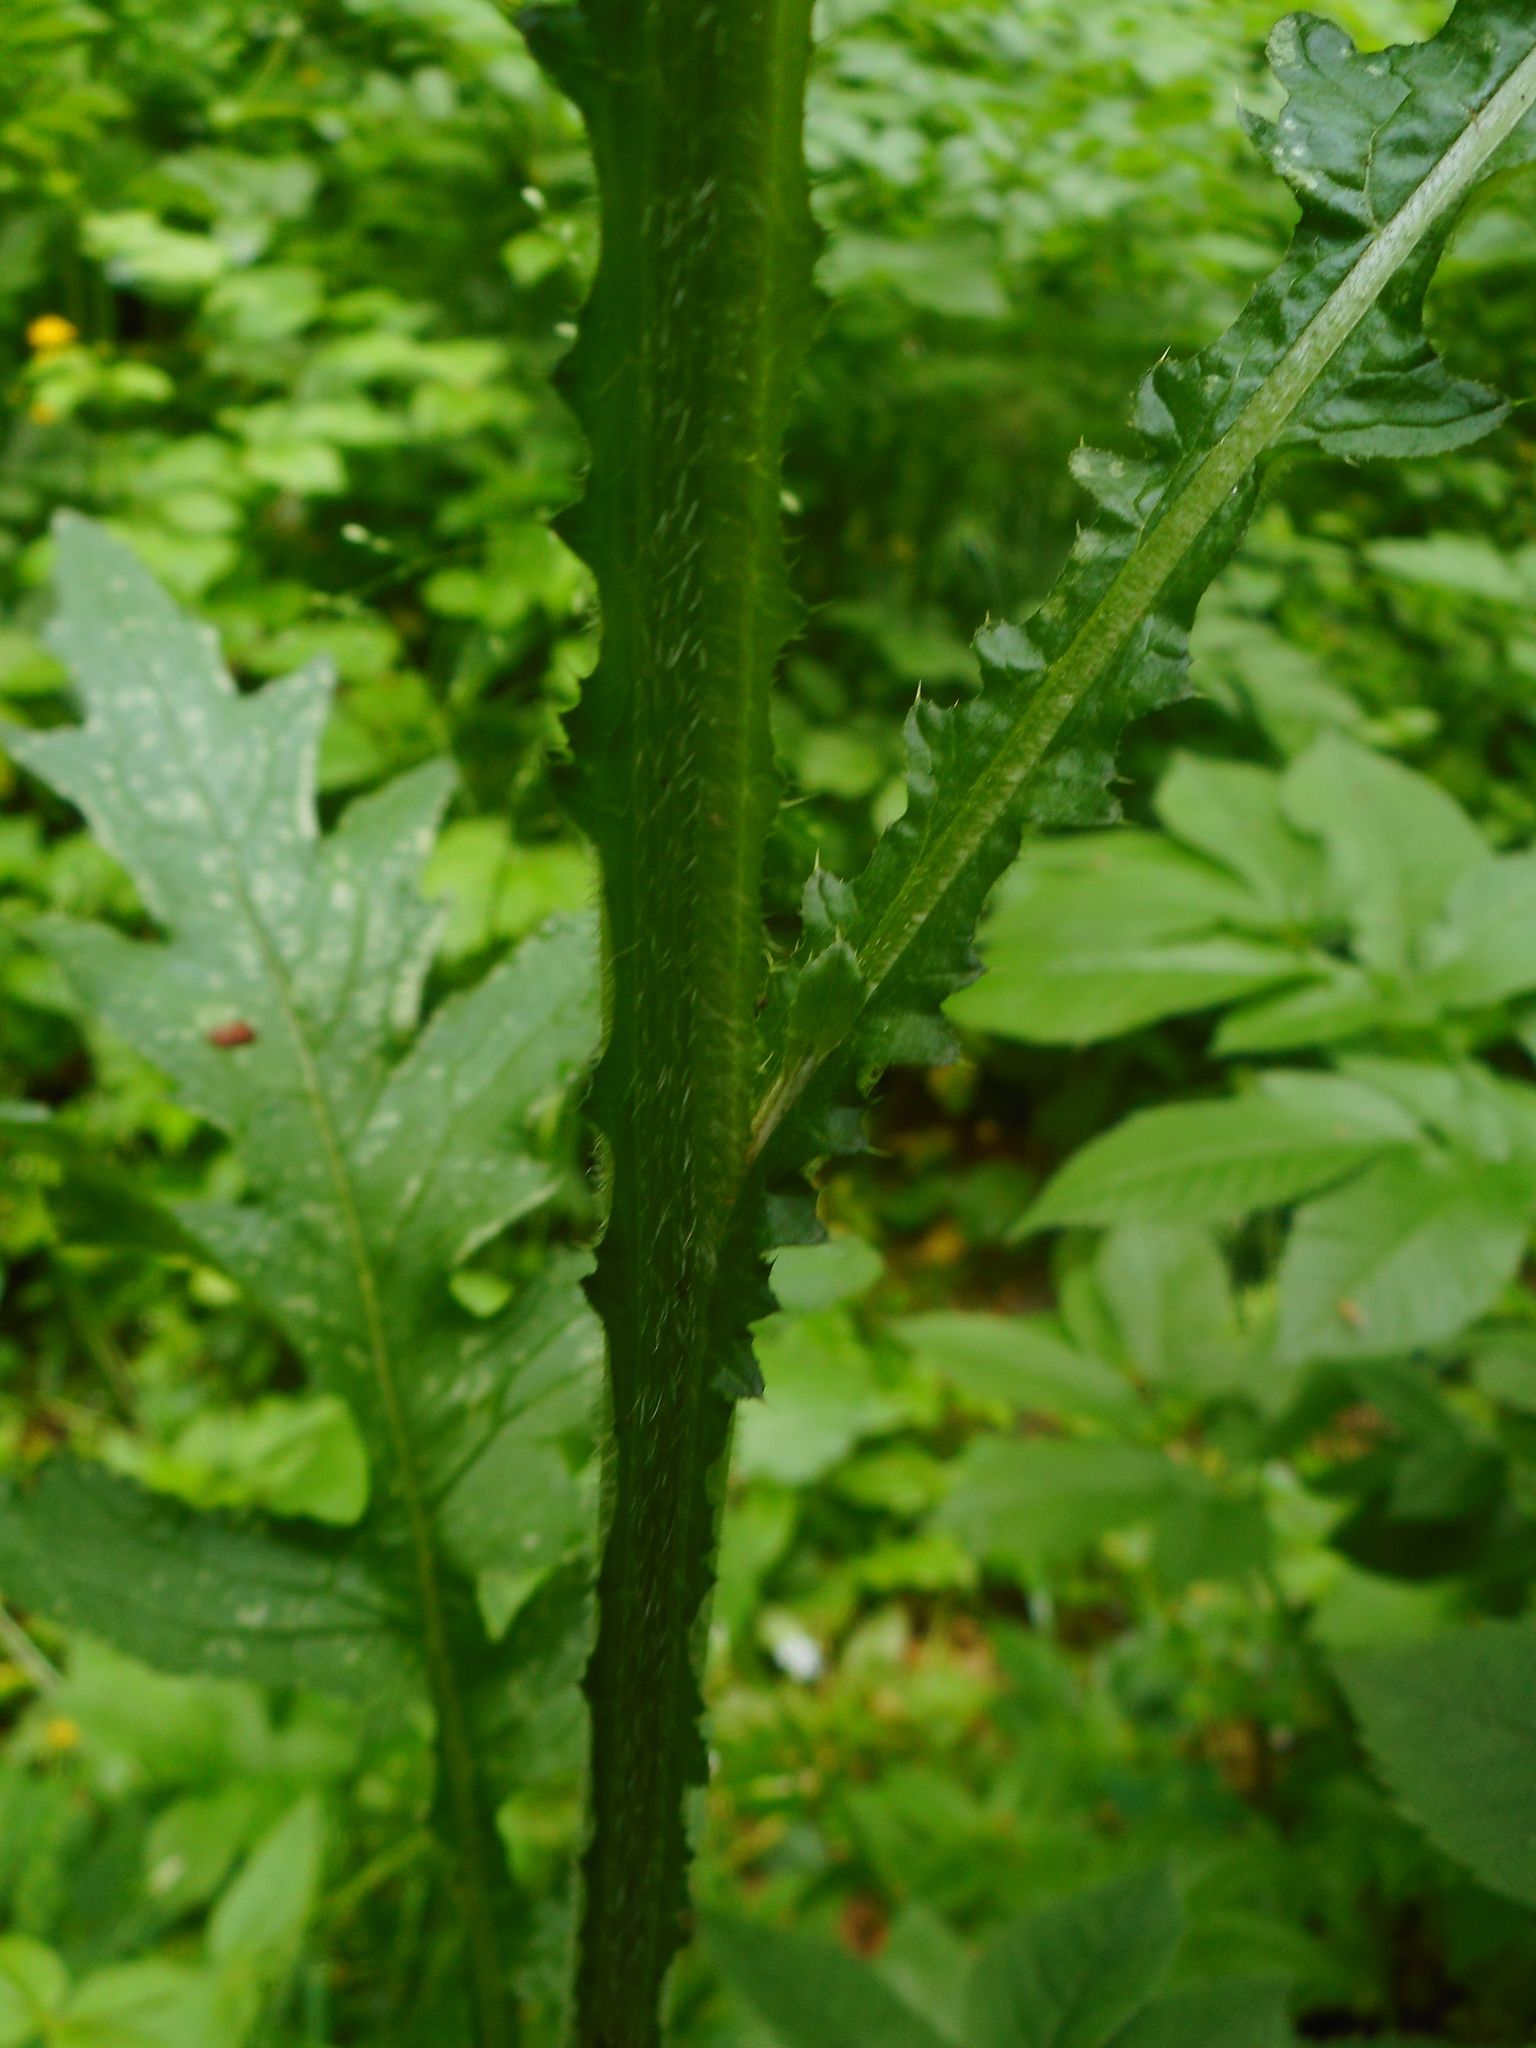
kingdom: Plantae
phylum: Tracheophyta
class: Magnoliopsida
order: Asterales
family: Asteraceae
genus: Carduus
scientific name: Carduus crispus
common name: Welted thistle
